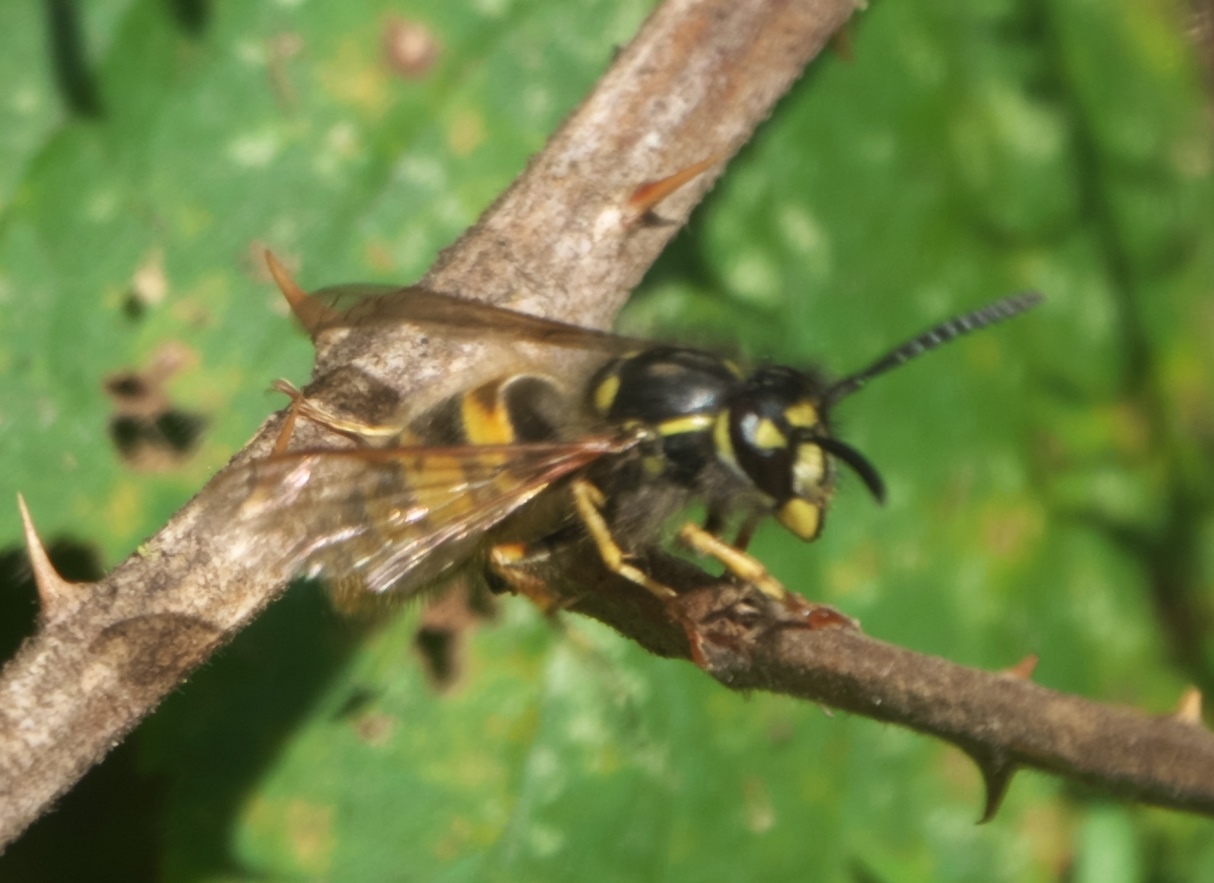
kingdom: Animalia
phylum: Arthropoda
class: Insecta
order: Hymenoptera
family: Vespidae
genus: Vespula
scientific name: Vespula vulgaris
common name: Common wasp
